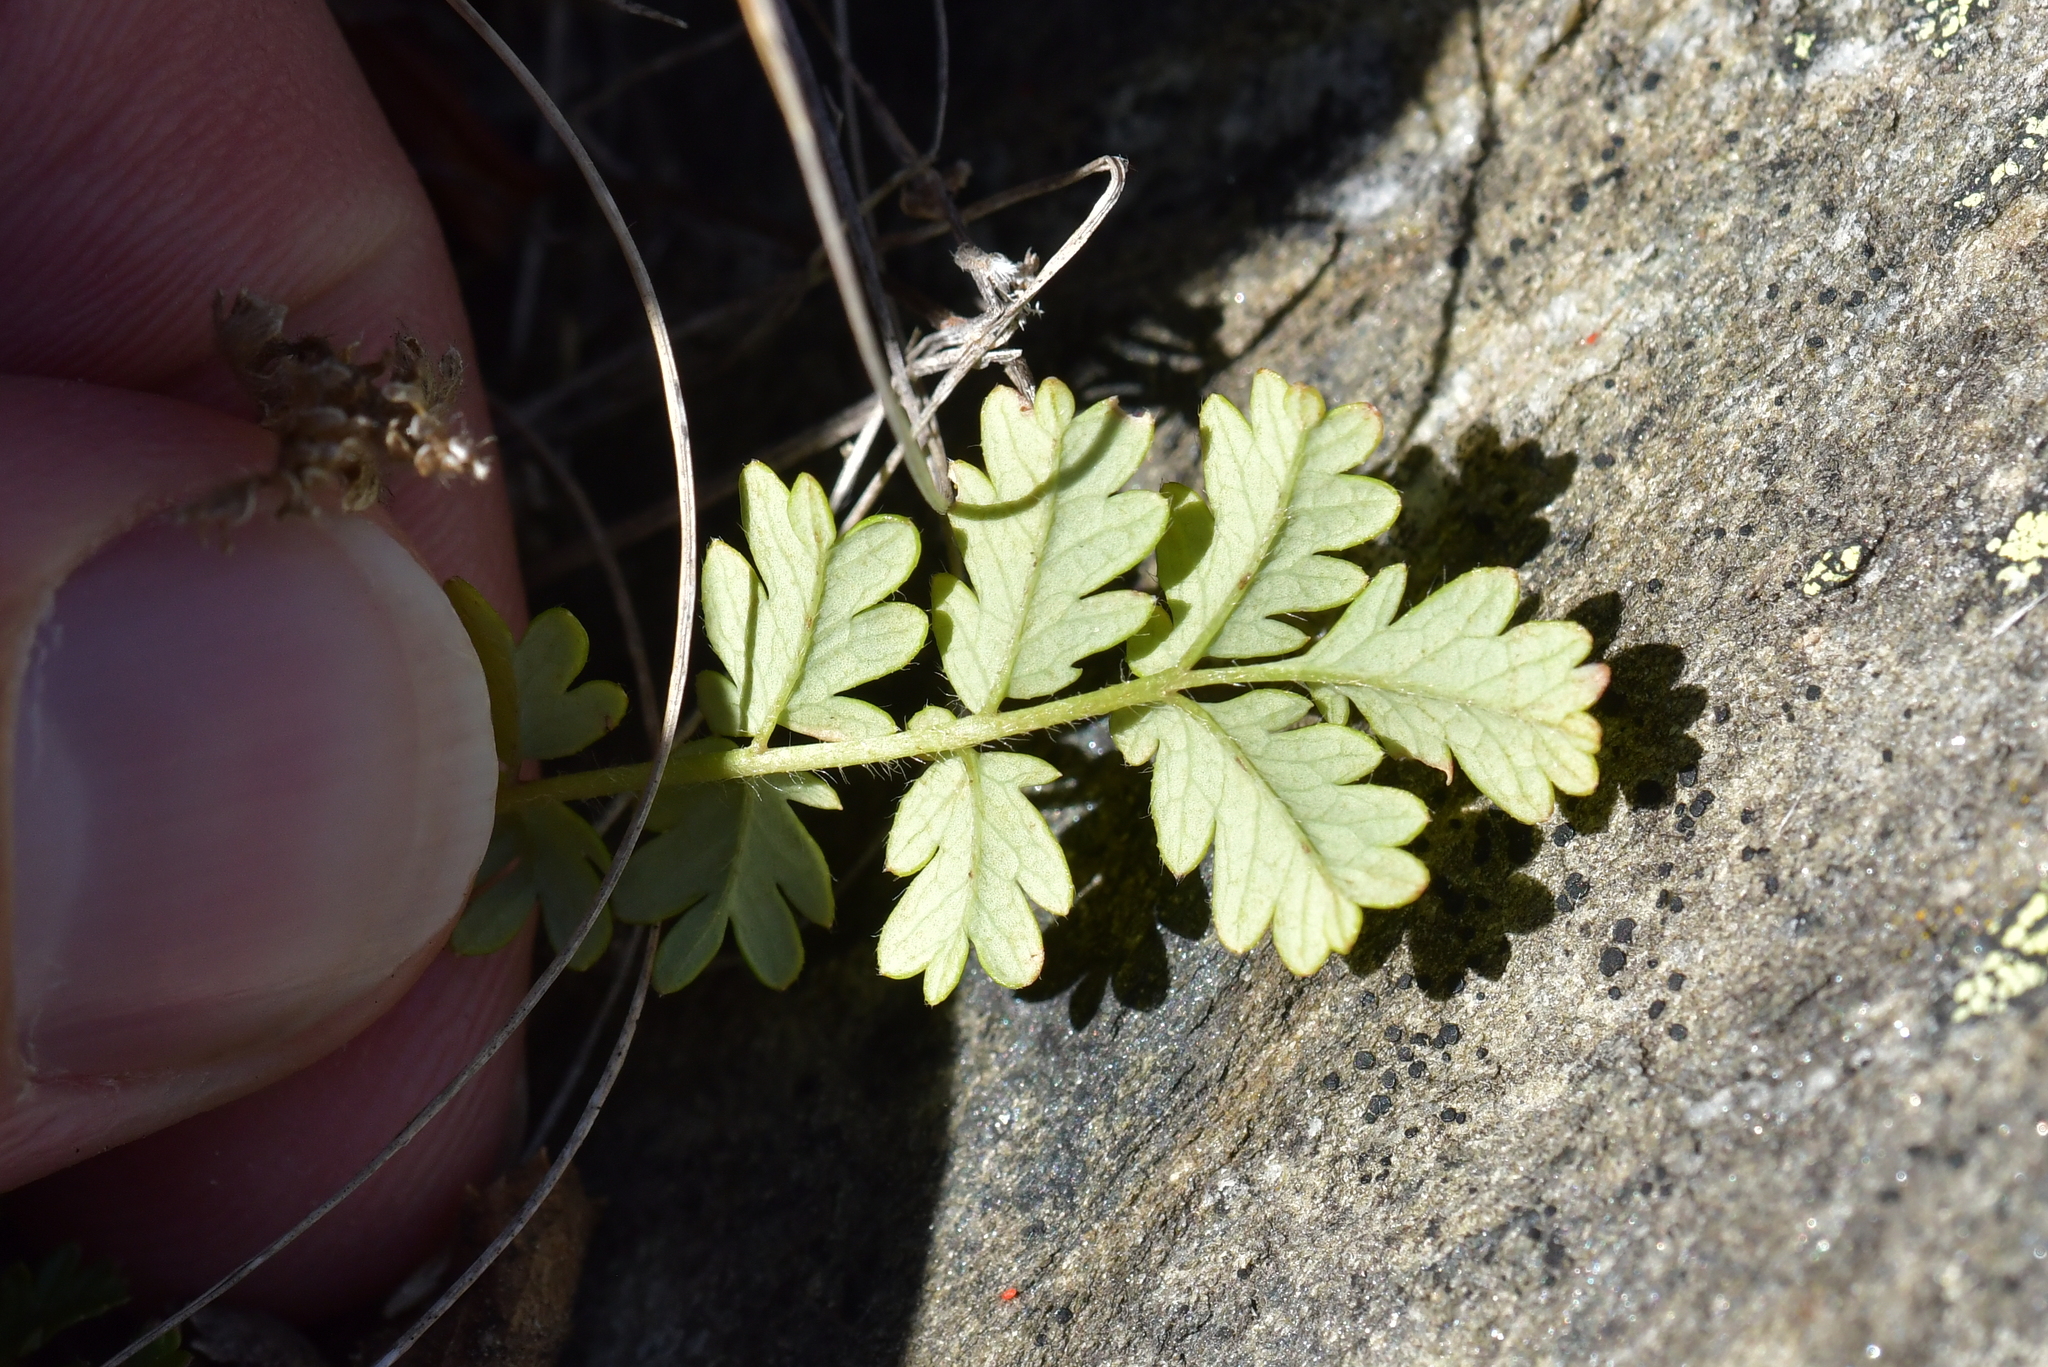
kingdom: Plantae
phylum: Tracheophyta
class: Magnoliopsida
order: Rosales
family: Rosaceae
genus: Acaena
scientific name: Acaena agnipila
